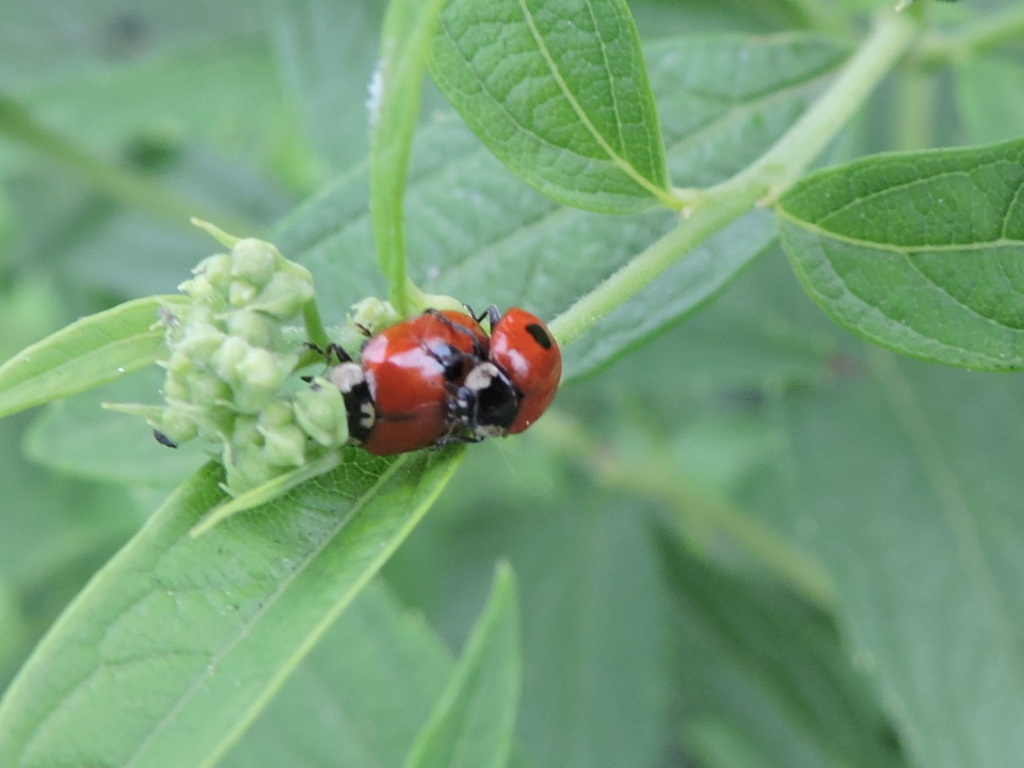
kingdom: Animalia
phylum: Arthropoda
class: Insecta
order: Coleoptera
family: Coccinellidae
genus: Adalia
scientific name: Adalia bipunctata
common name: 2-spot ladybird
